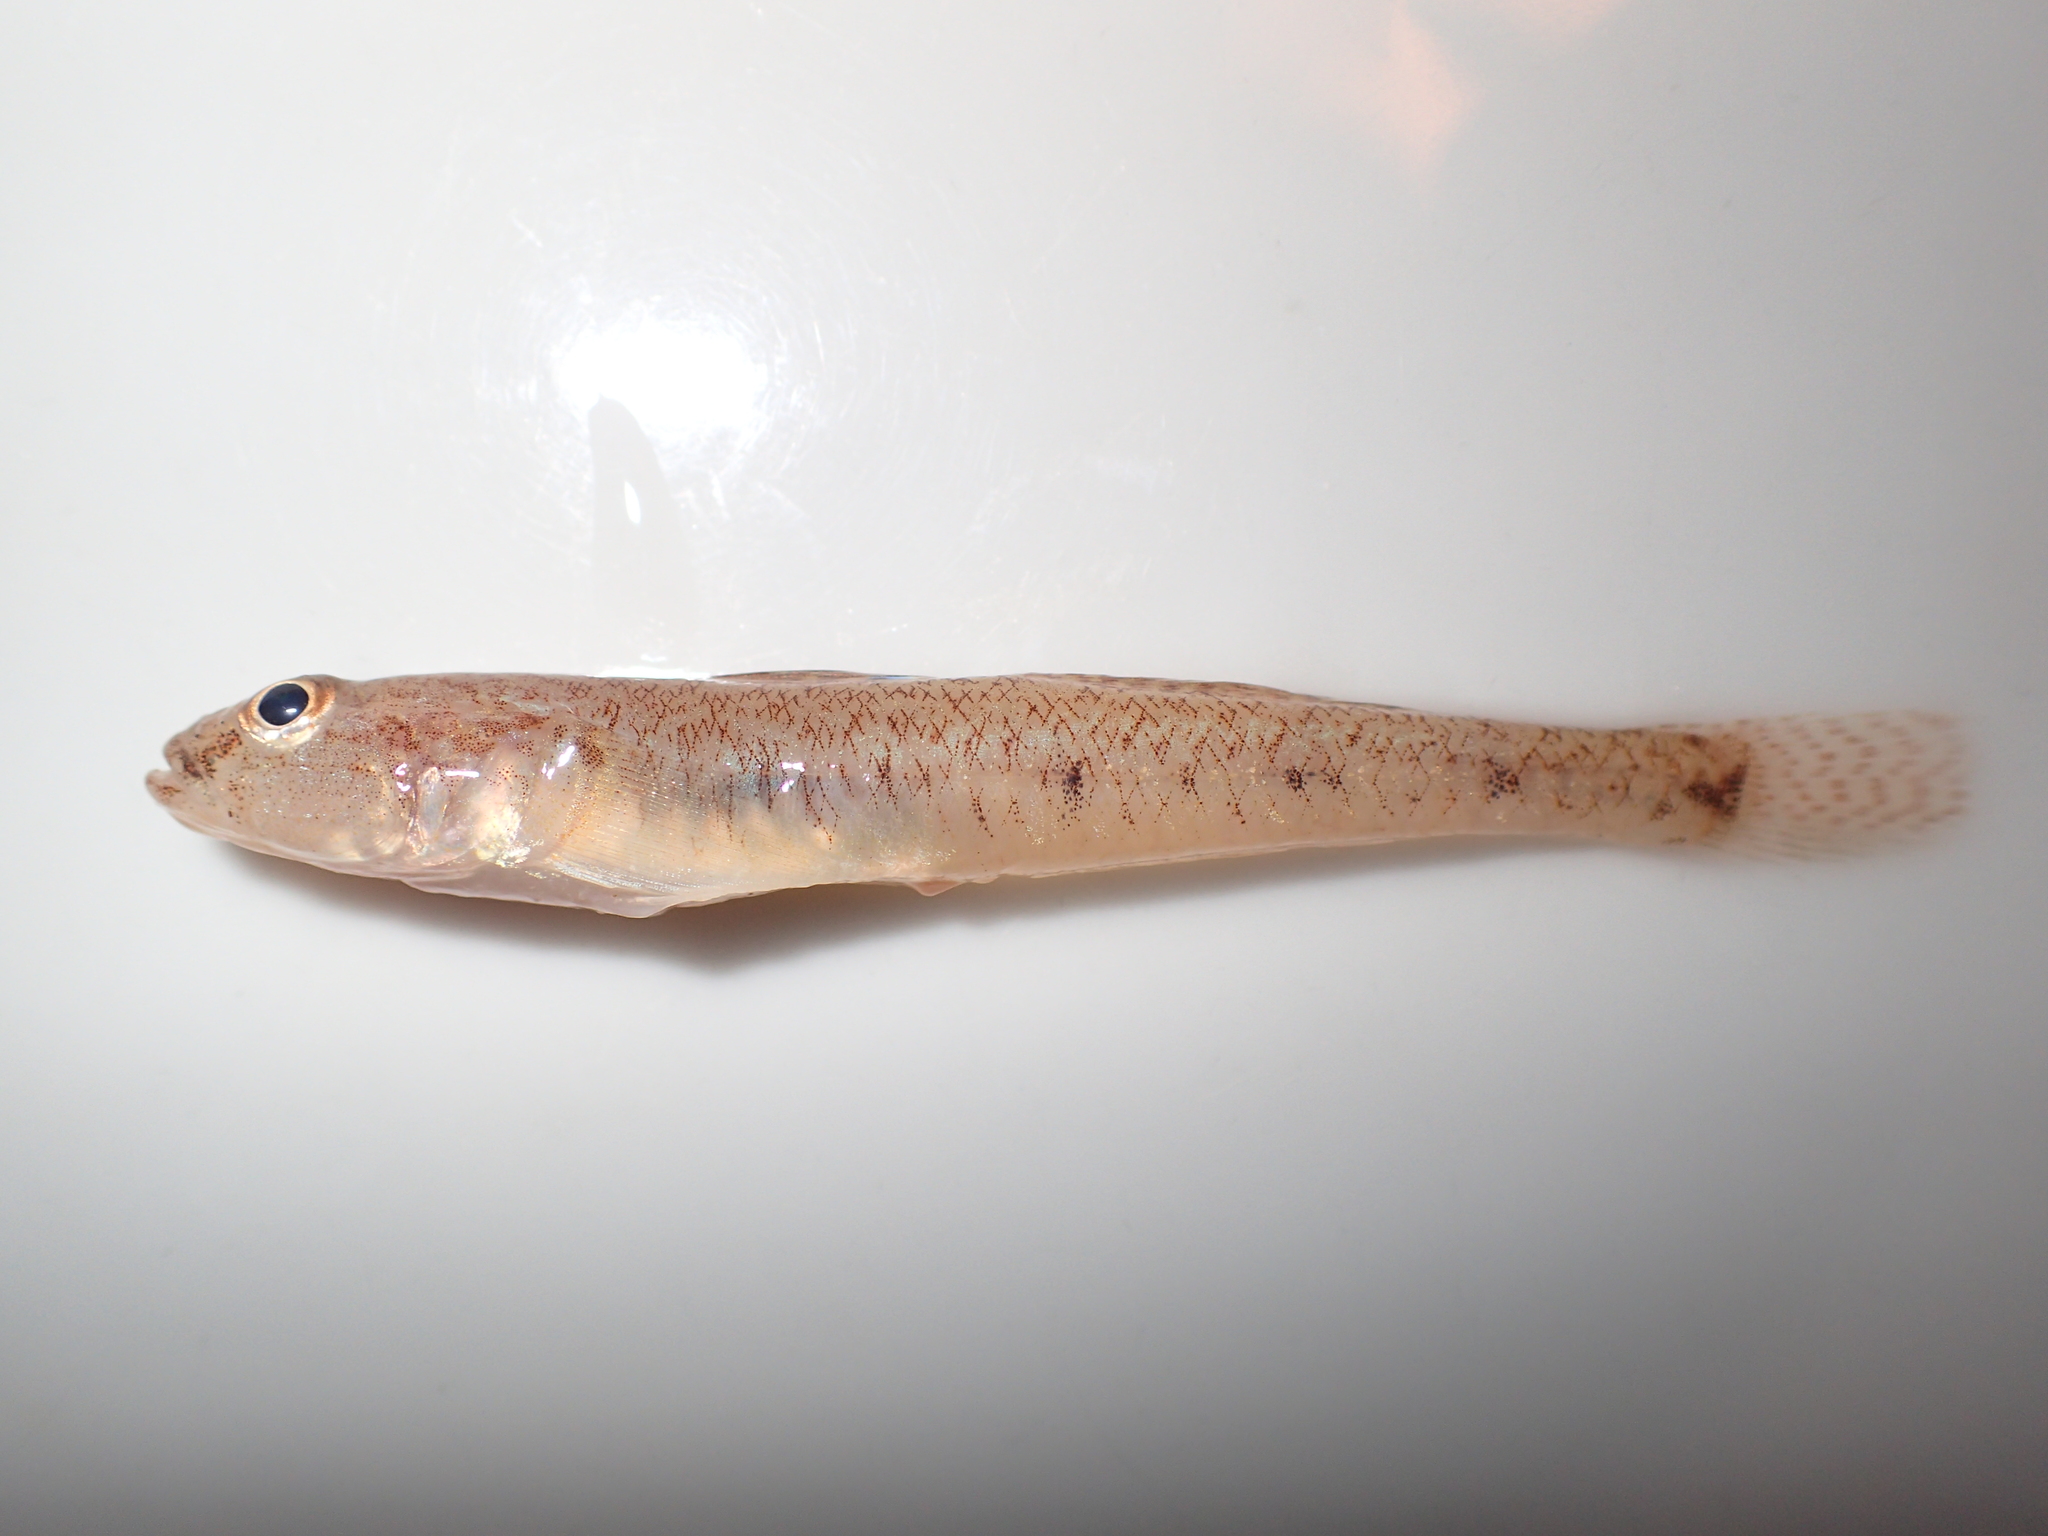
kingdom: Animalia
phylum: Chordata
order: Perciformes
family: Gobiidae
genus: Pomatoschistus
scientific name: Pomatoschistus minutus
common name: Sand goby
